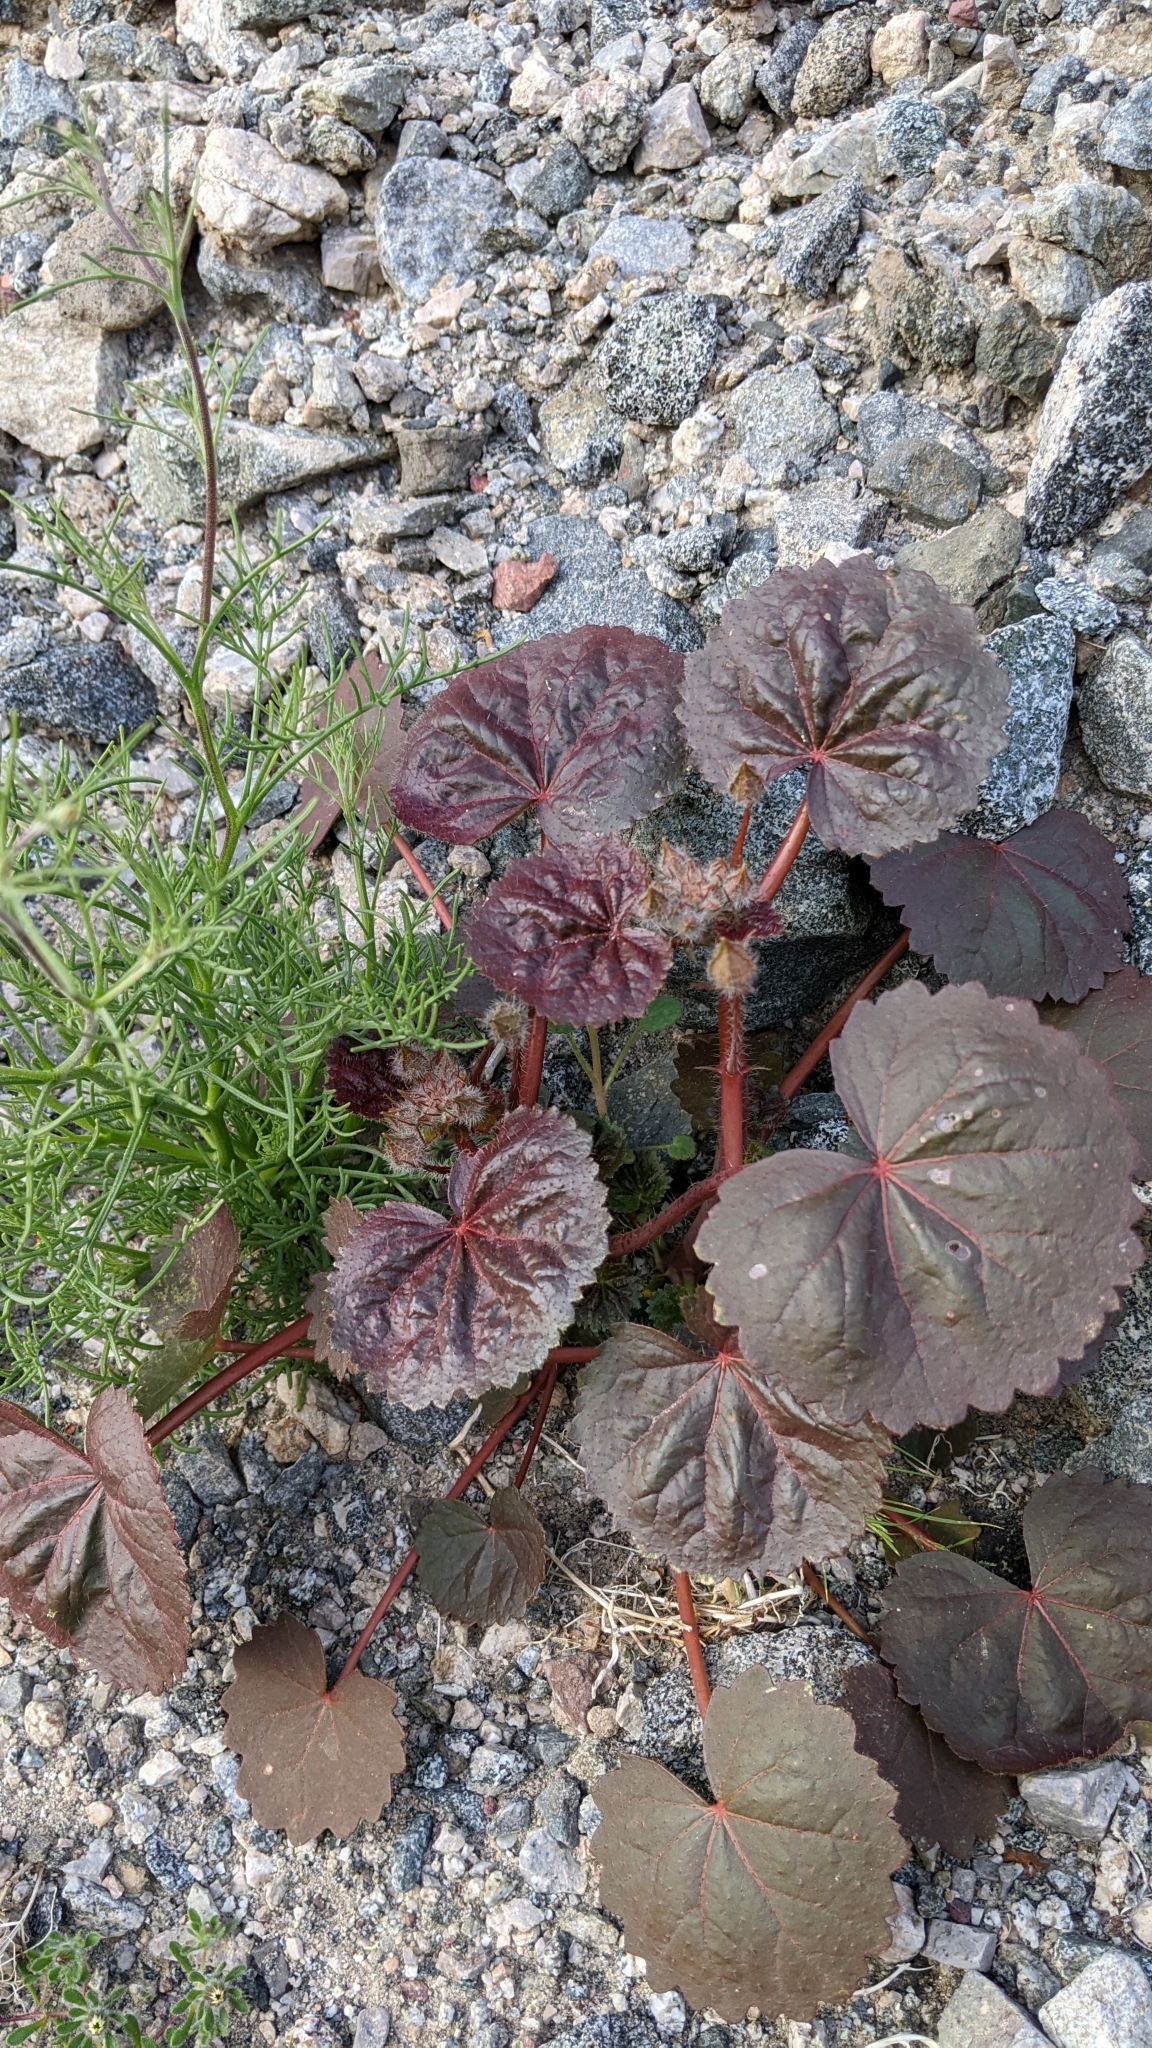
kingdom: Plantae
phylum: Tracheophyta
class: Magnoliopsida
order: Malvales
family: Malvaceae
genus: Eremalche
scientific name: Eremalche rotundifolia
